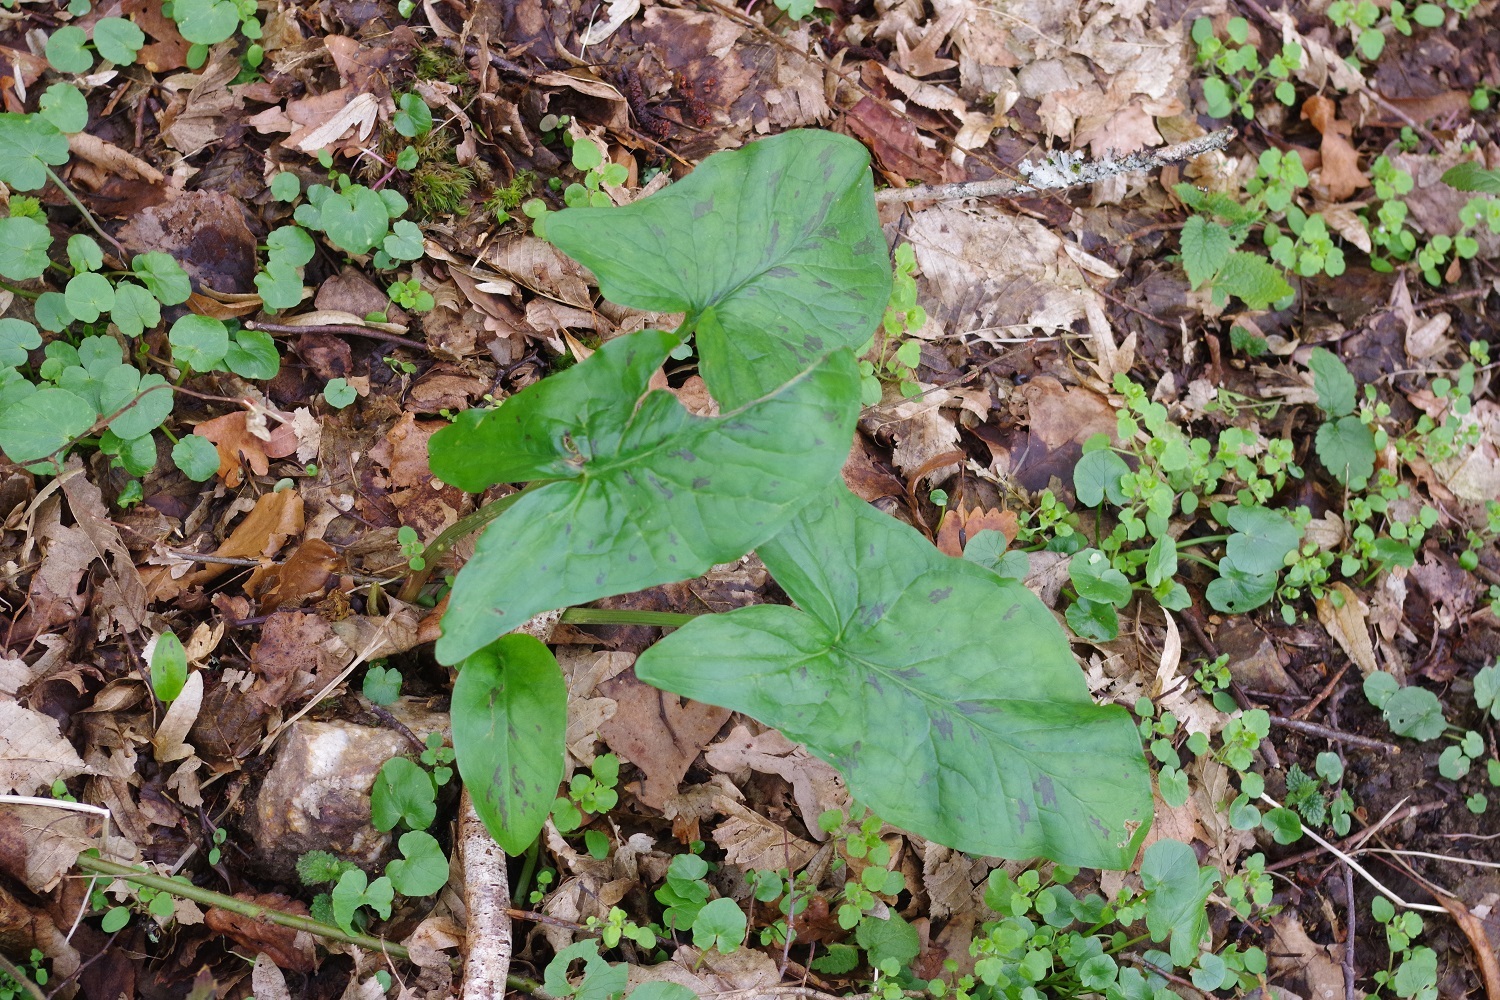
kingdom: Plantae
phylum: Tracheophyta
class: Liliopsida
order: Alismatales
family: Araceae
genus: Arum
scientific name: Arum maculatum
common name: Lords-and-ladies
